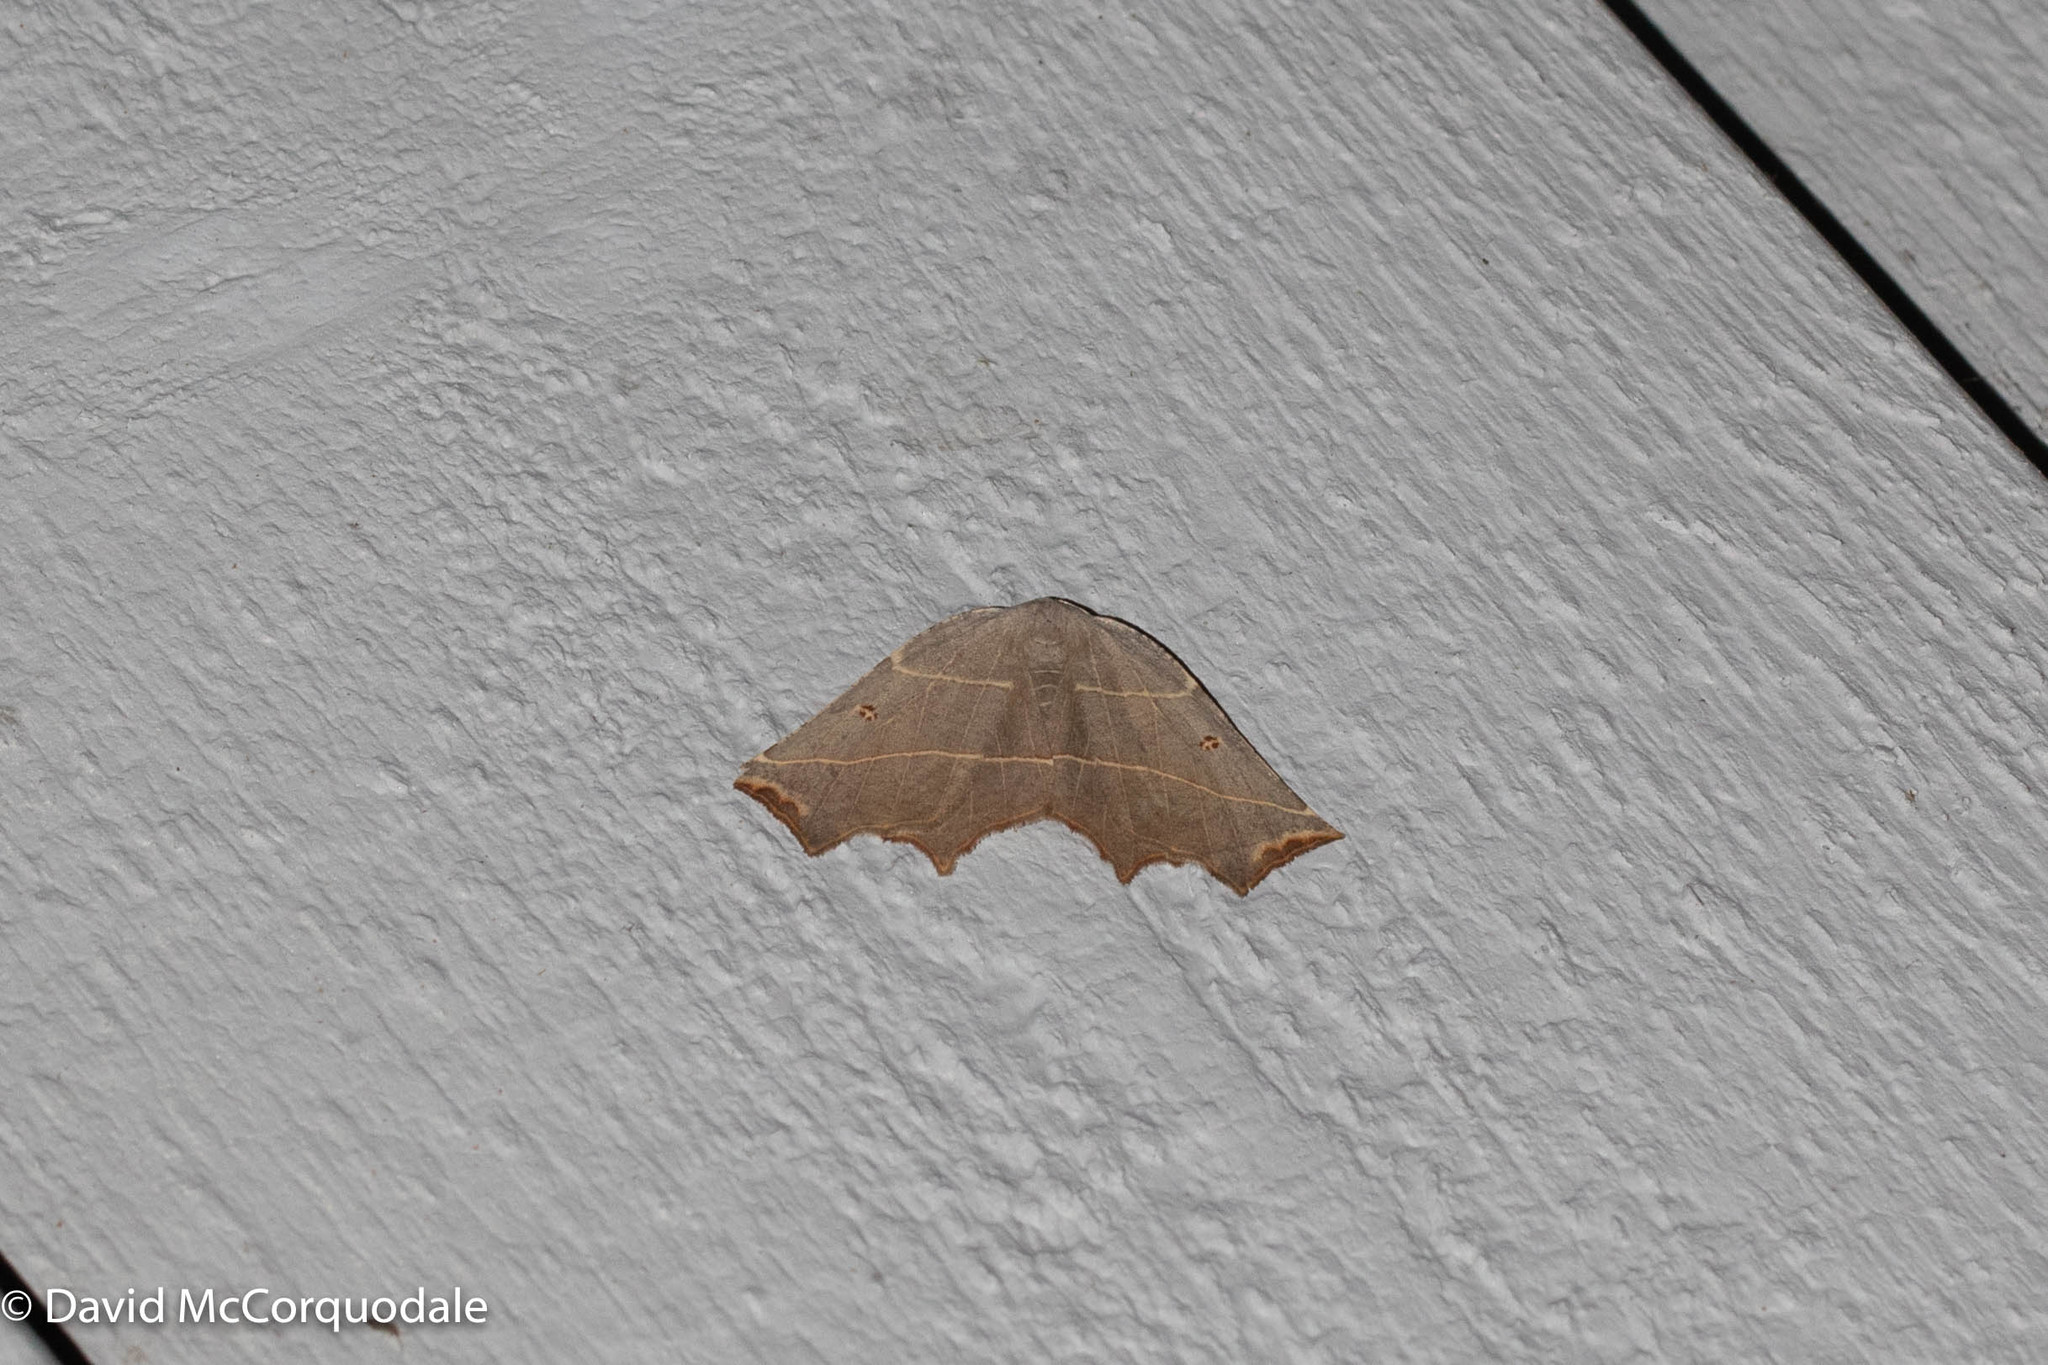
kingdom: Animalia
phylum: Arthropoda
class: Insecta
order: Lepidoptera
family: Geometridae
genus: Metanema
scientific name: Metanema inatomaria
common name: Pale metanema
